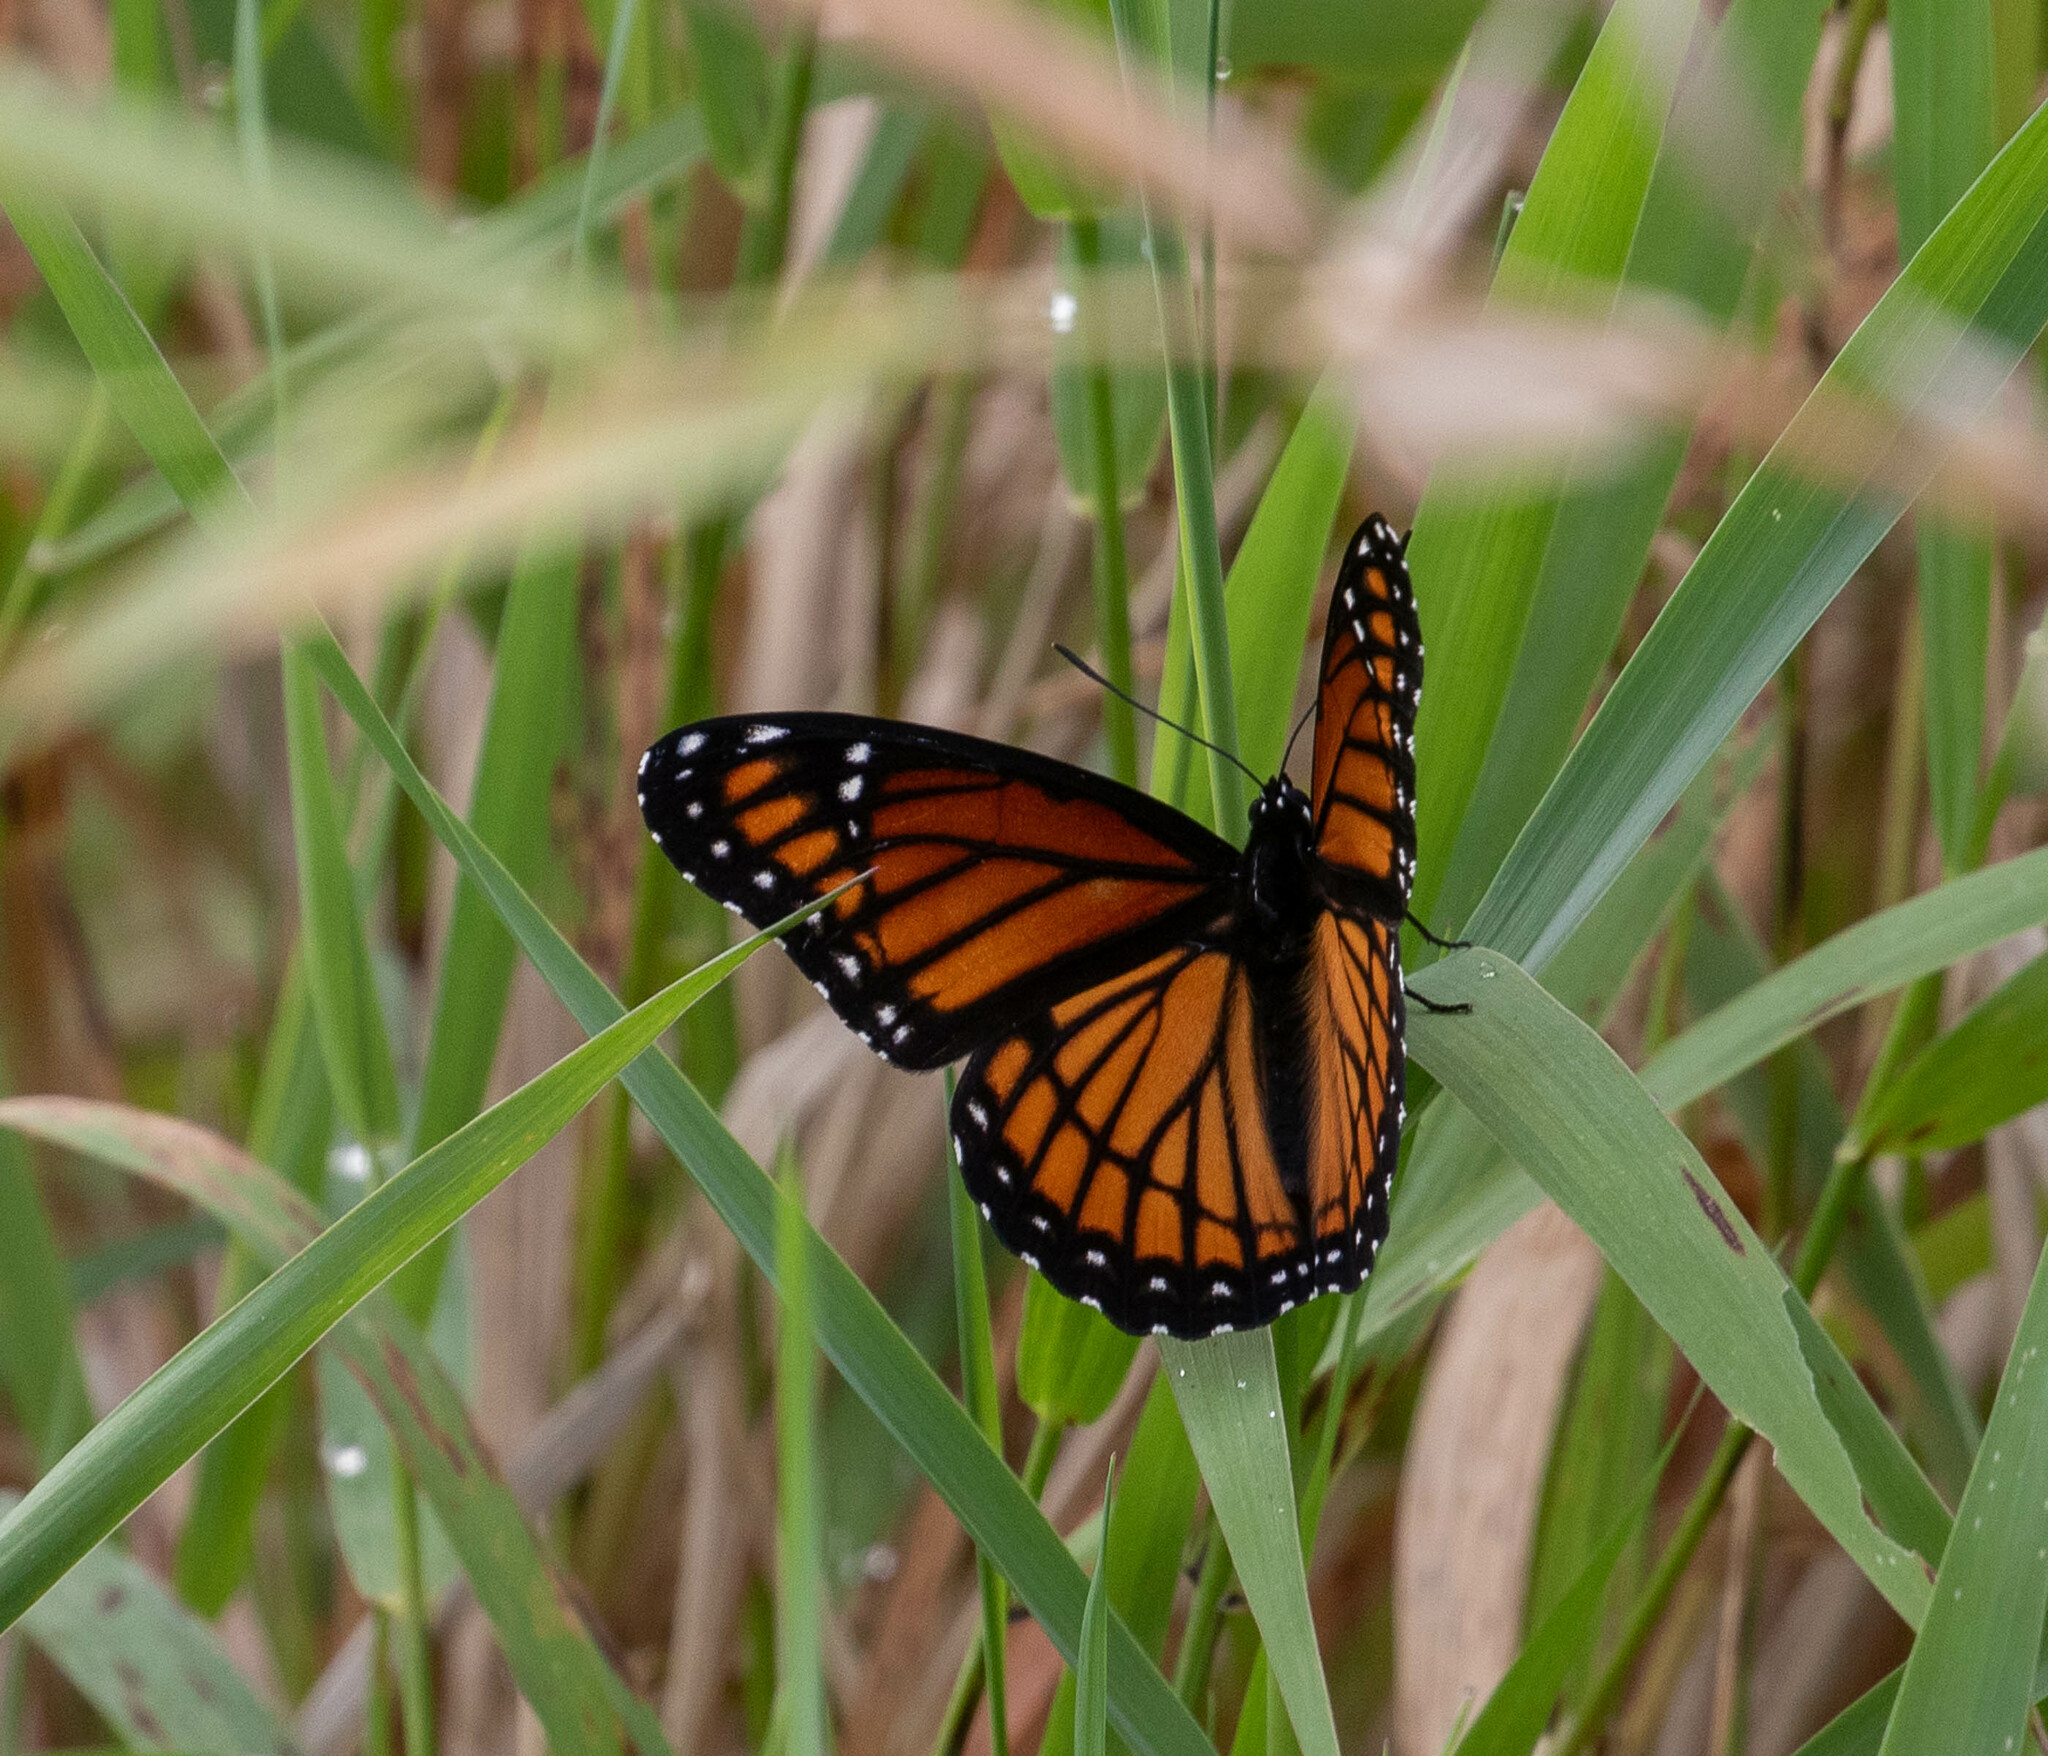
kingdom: Animalia
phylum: Arthropoda
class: Insecta
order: Lepidoptera
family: Nymphalidae
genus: Limenitis
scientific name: Limenitis archippus
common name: Viceroy
